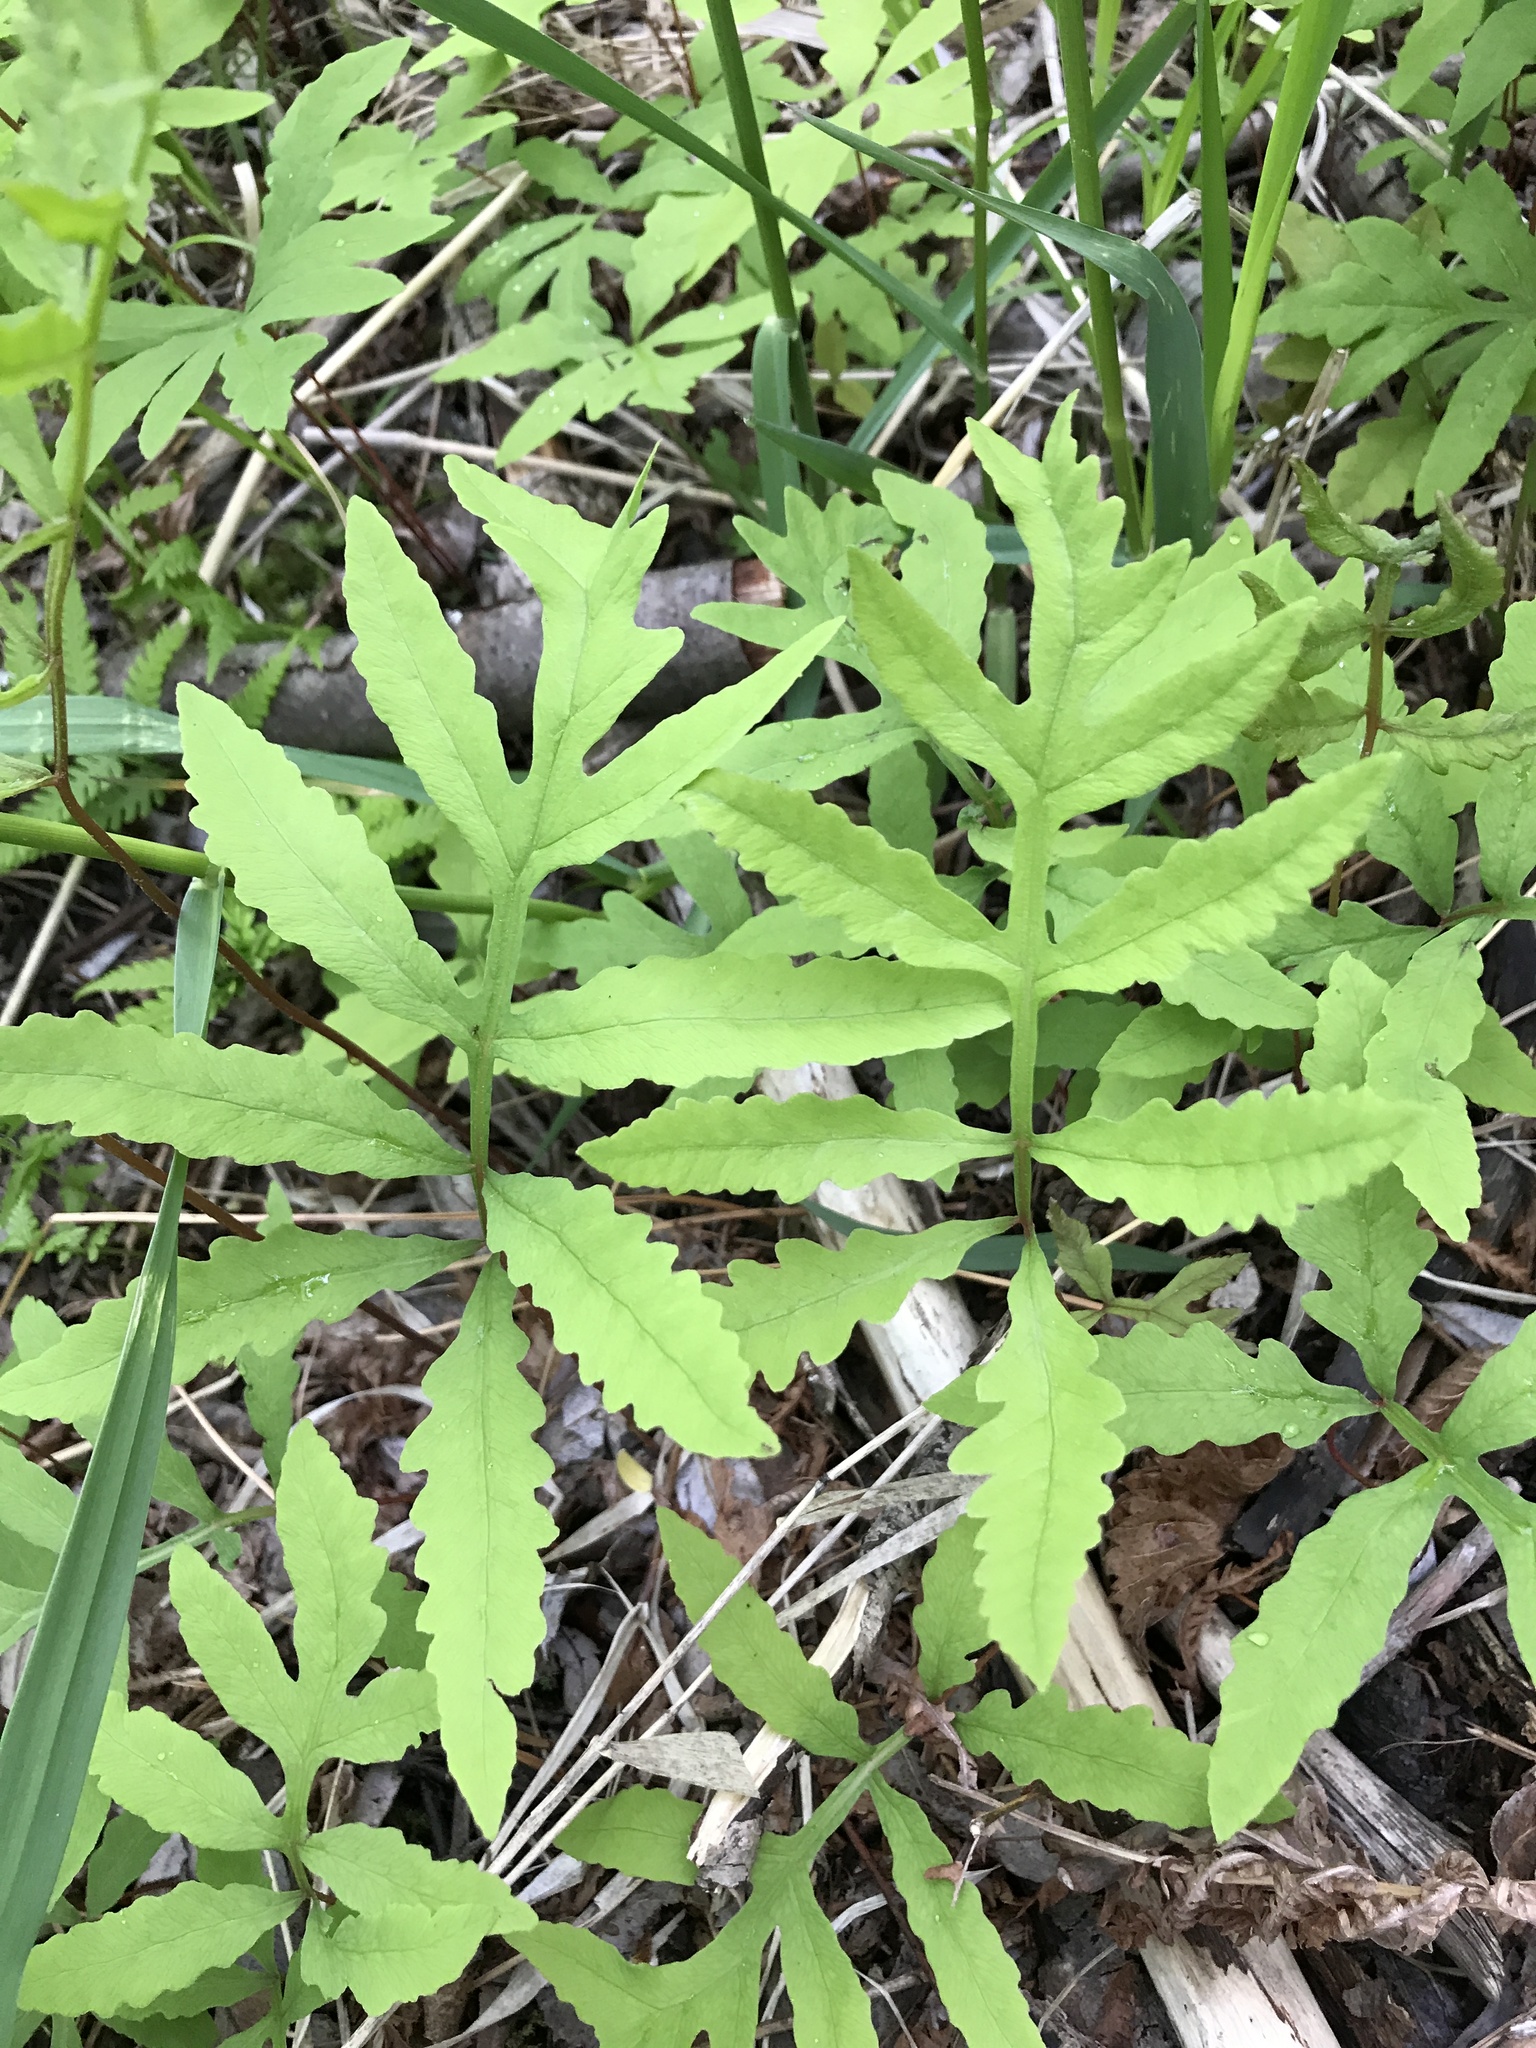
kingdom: Plantae
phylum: Tracheophyta
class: Polypodiopsida
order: Polypodiales
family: Onocleaceae
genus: Onoclea
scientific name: Onoclea sensibilis
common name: Sensitive fern
